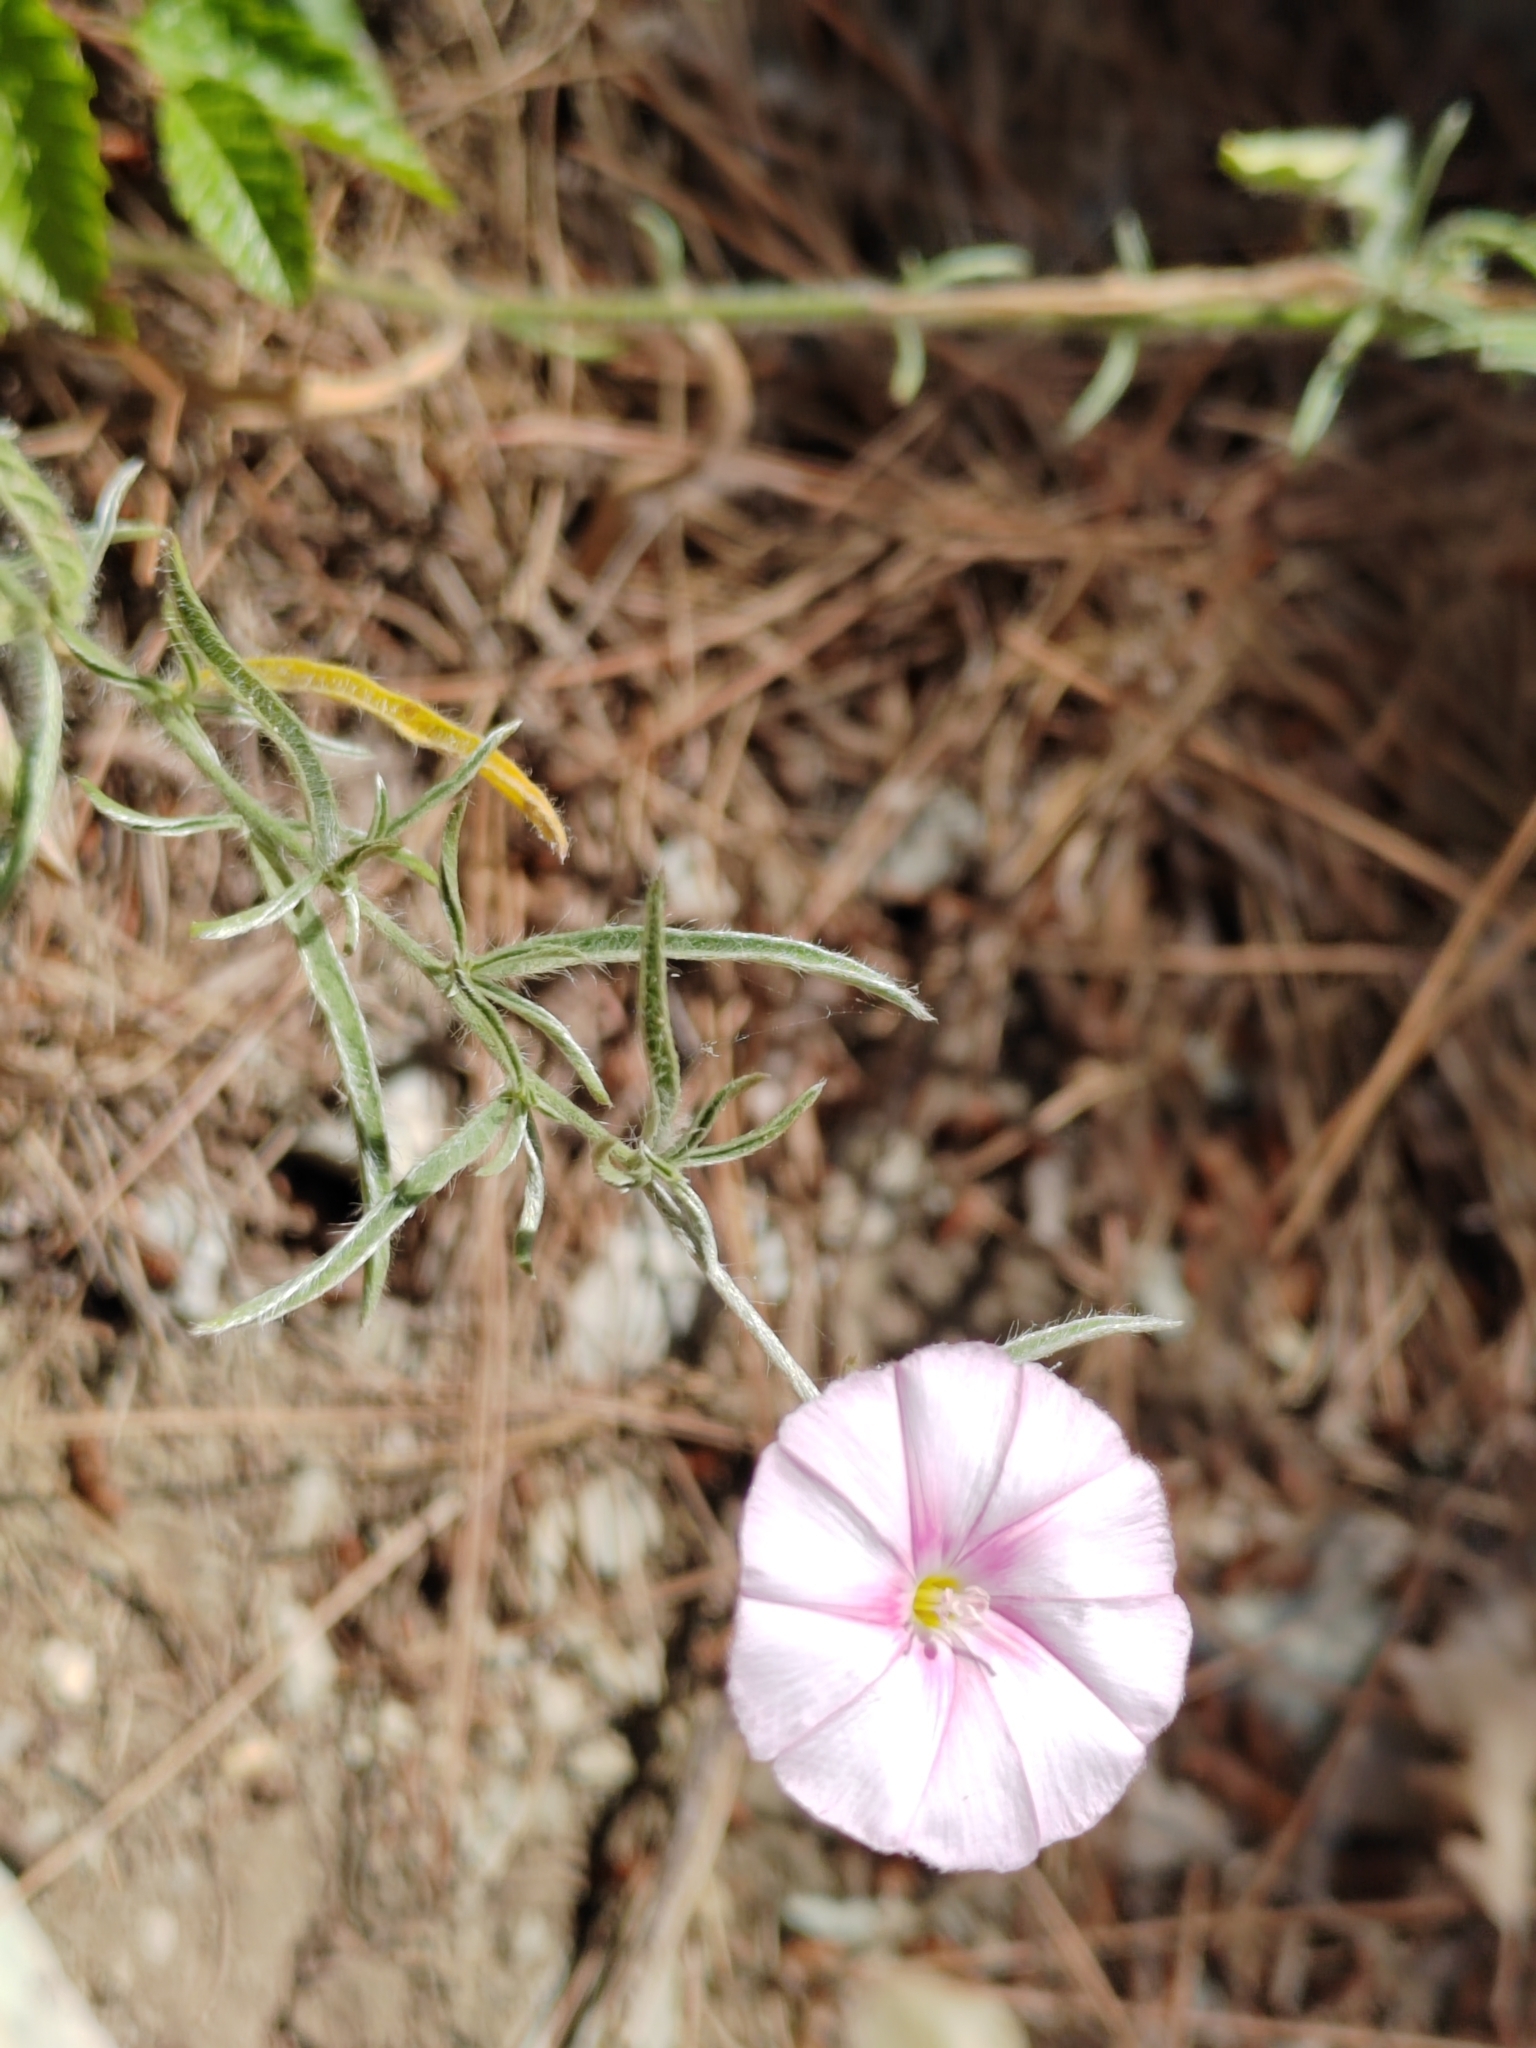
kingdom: Plantae
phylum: Tracheophyta
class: Magnoliopsida
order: Solanales
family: Convolvulaceae
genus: Convolvulus
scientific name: Convolvulus cantabrica
